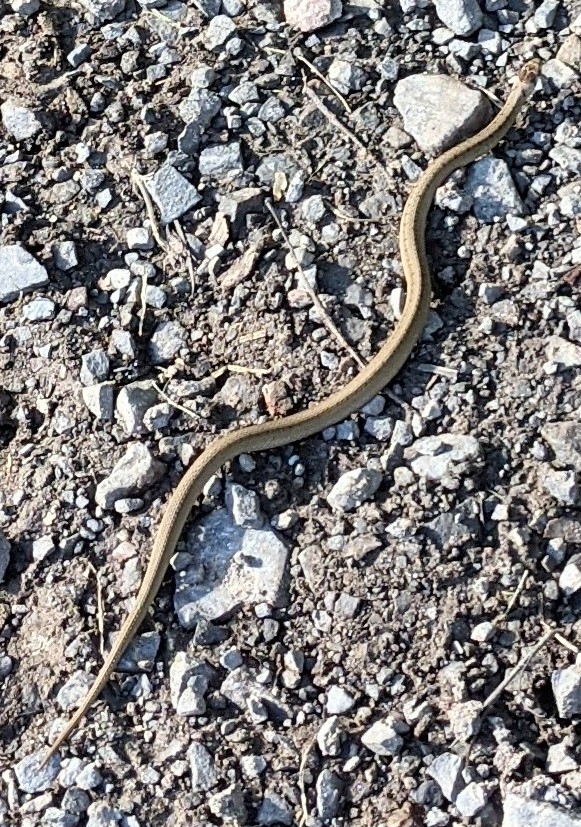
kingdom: Animalia
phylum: Chordata
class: Squamata
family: Colubridae
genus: Storeria
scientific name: Storeria dekayi
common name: (dekay’s) brown snake
